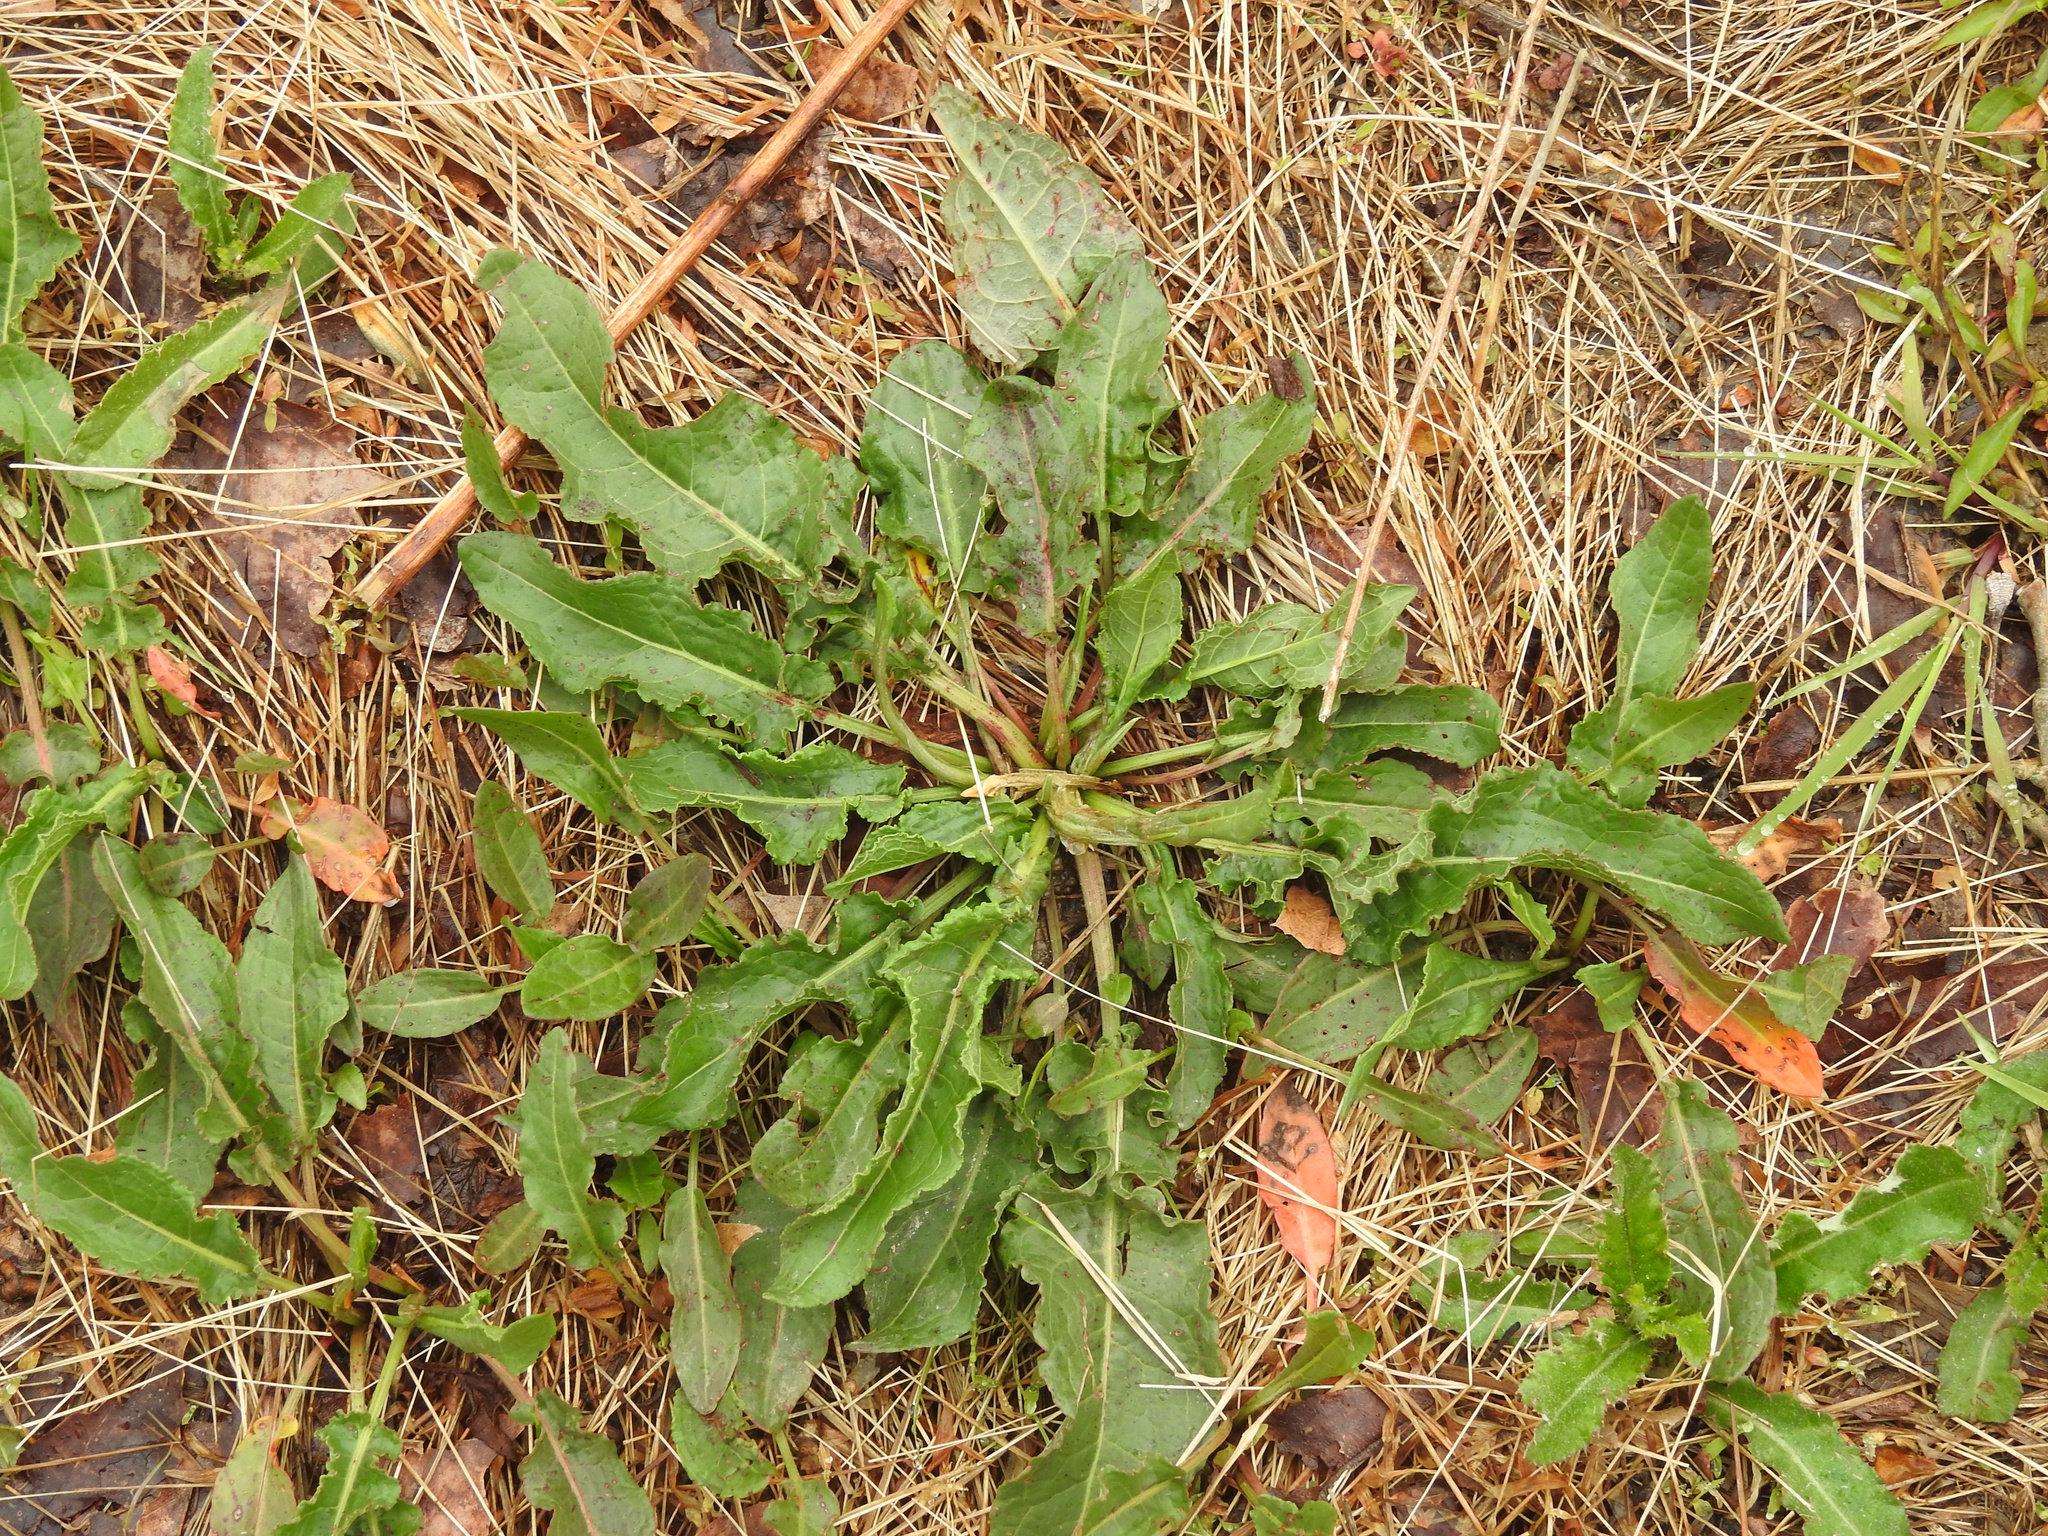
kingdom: Plantae
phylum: Tracheophyta
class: Magnoliopsida
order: Caryophyllales
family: Polygonaceae
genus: Rumex
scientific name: Rumex crispus
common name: Curled dock
